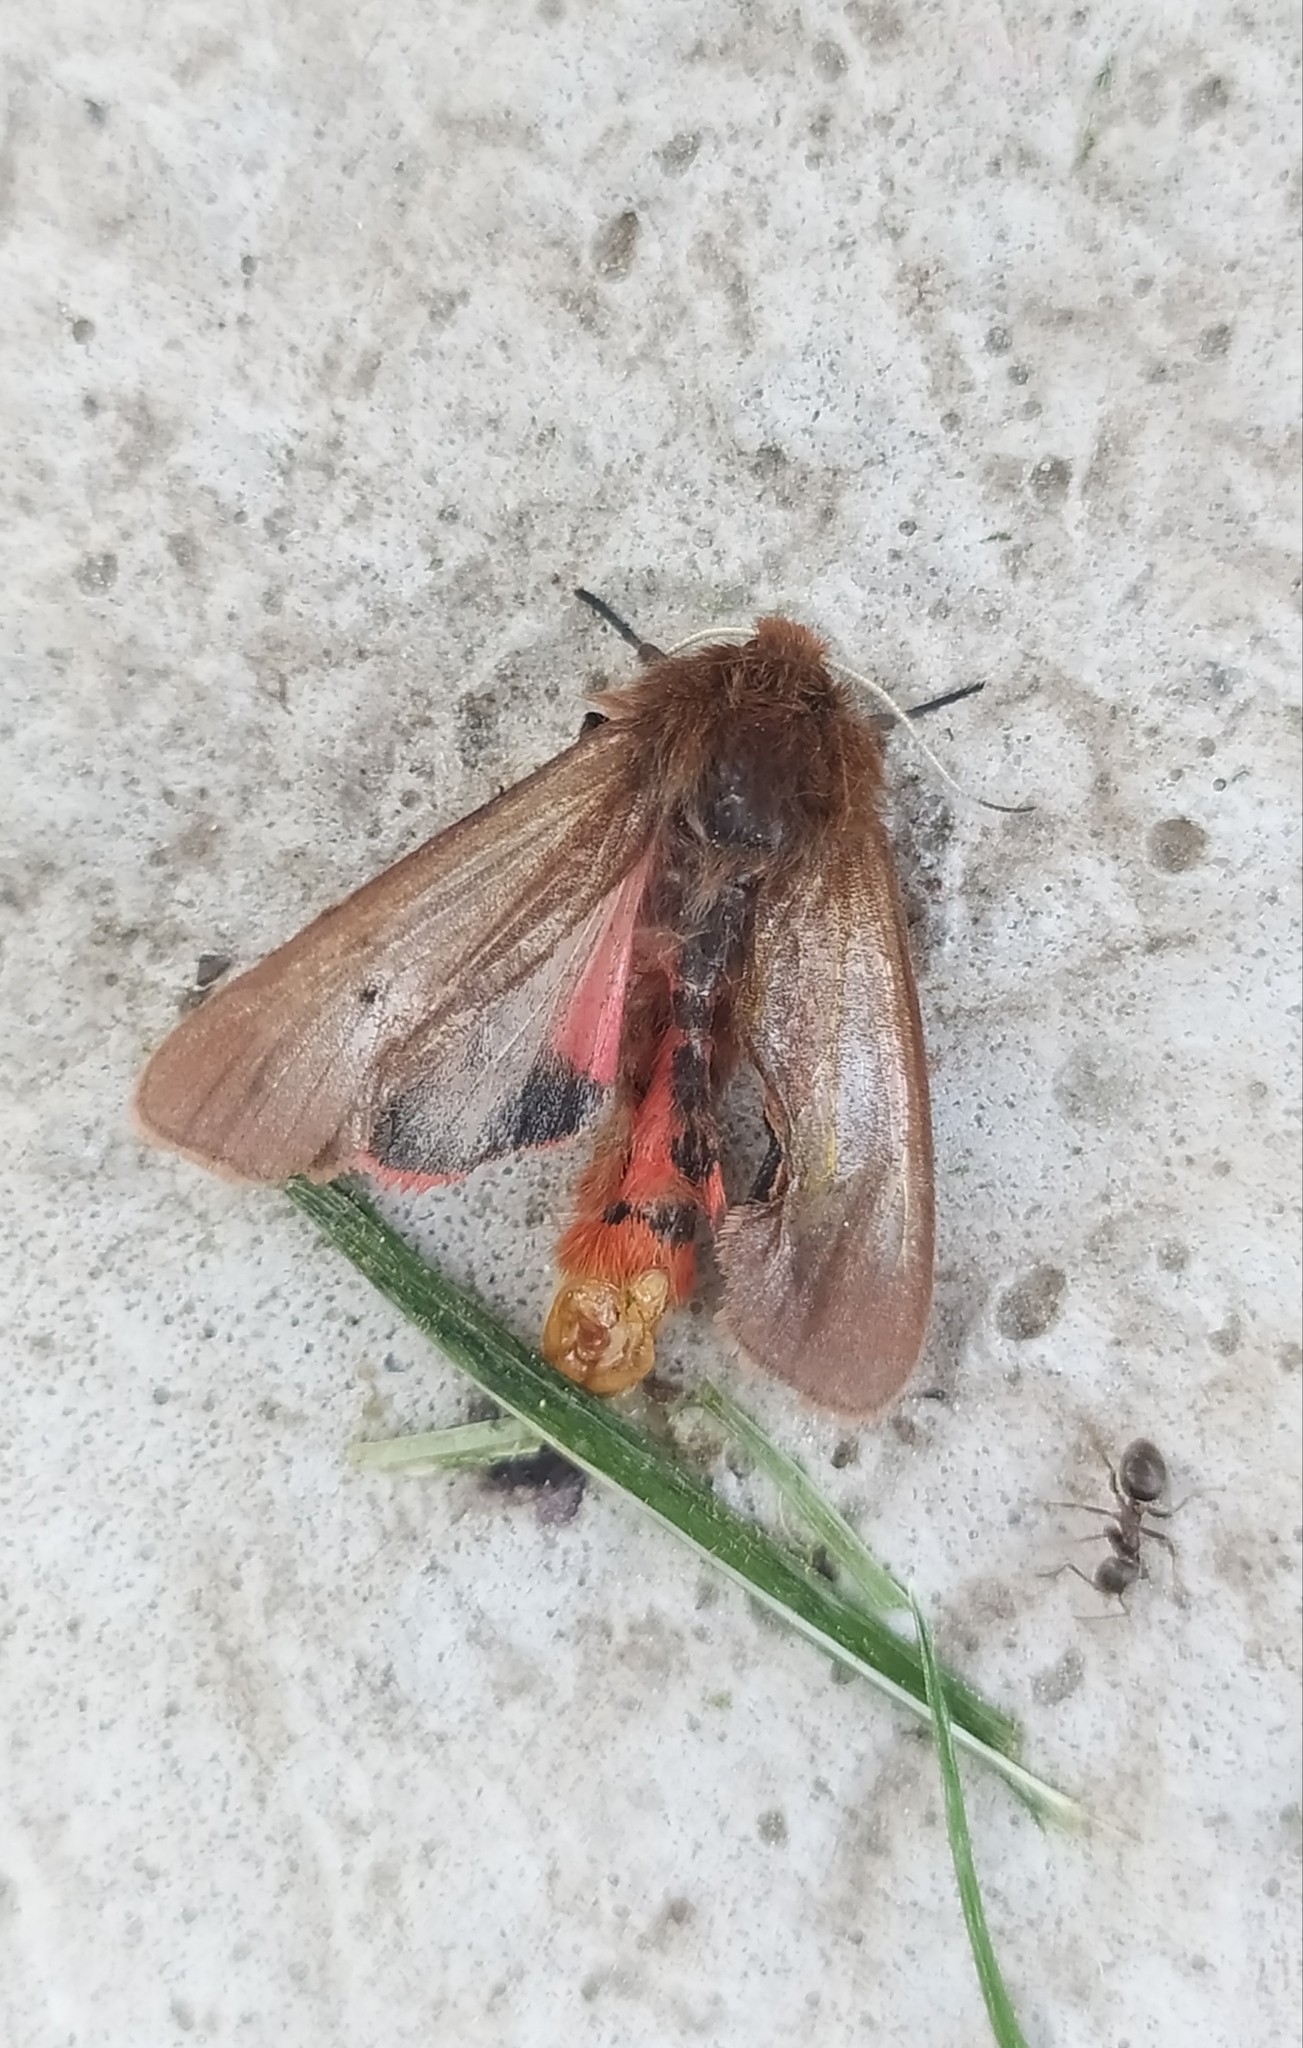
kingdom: Animalia
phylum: Arthropoda
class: Insecta
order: Lepidoptera
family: Erebidae
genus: Phragmatobia
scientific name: Phragmatobia fuliginosa
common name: Ruby tiger
